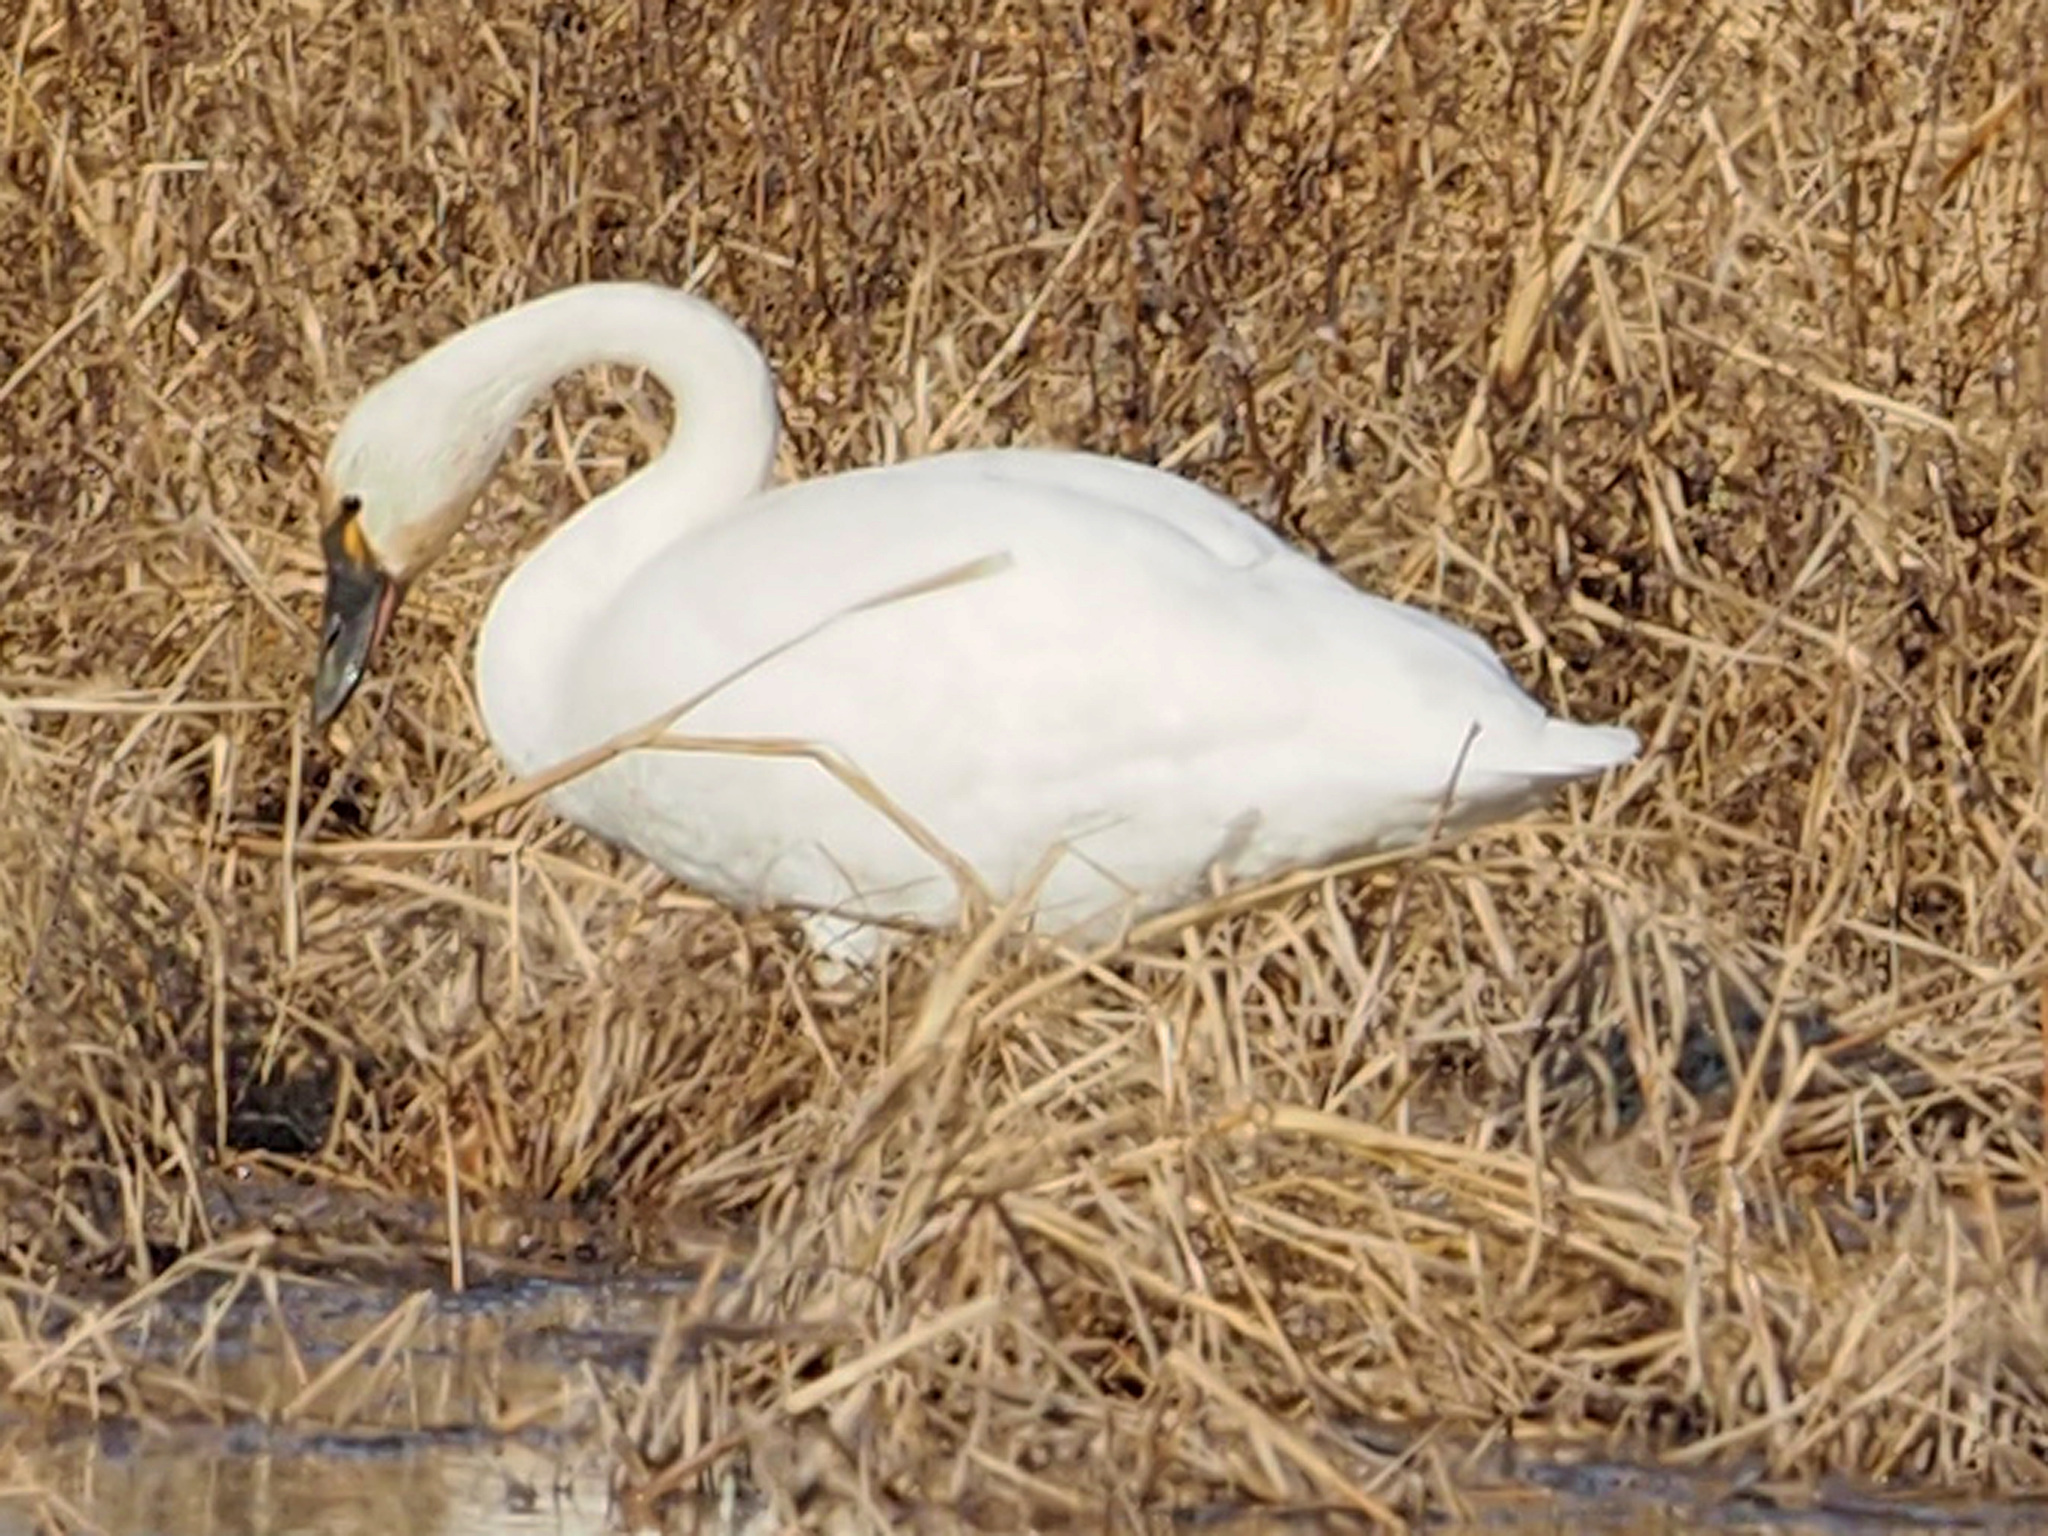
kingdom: Animalia
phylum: Chordata
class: Aves
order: Anseriformes
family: Anatidae
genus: Cygnus
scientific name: Cygnus columbianus
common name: Tundra swan
